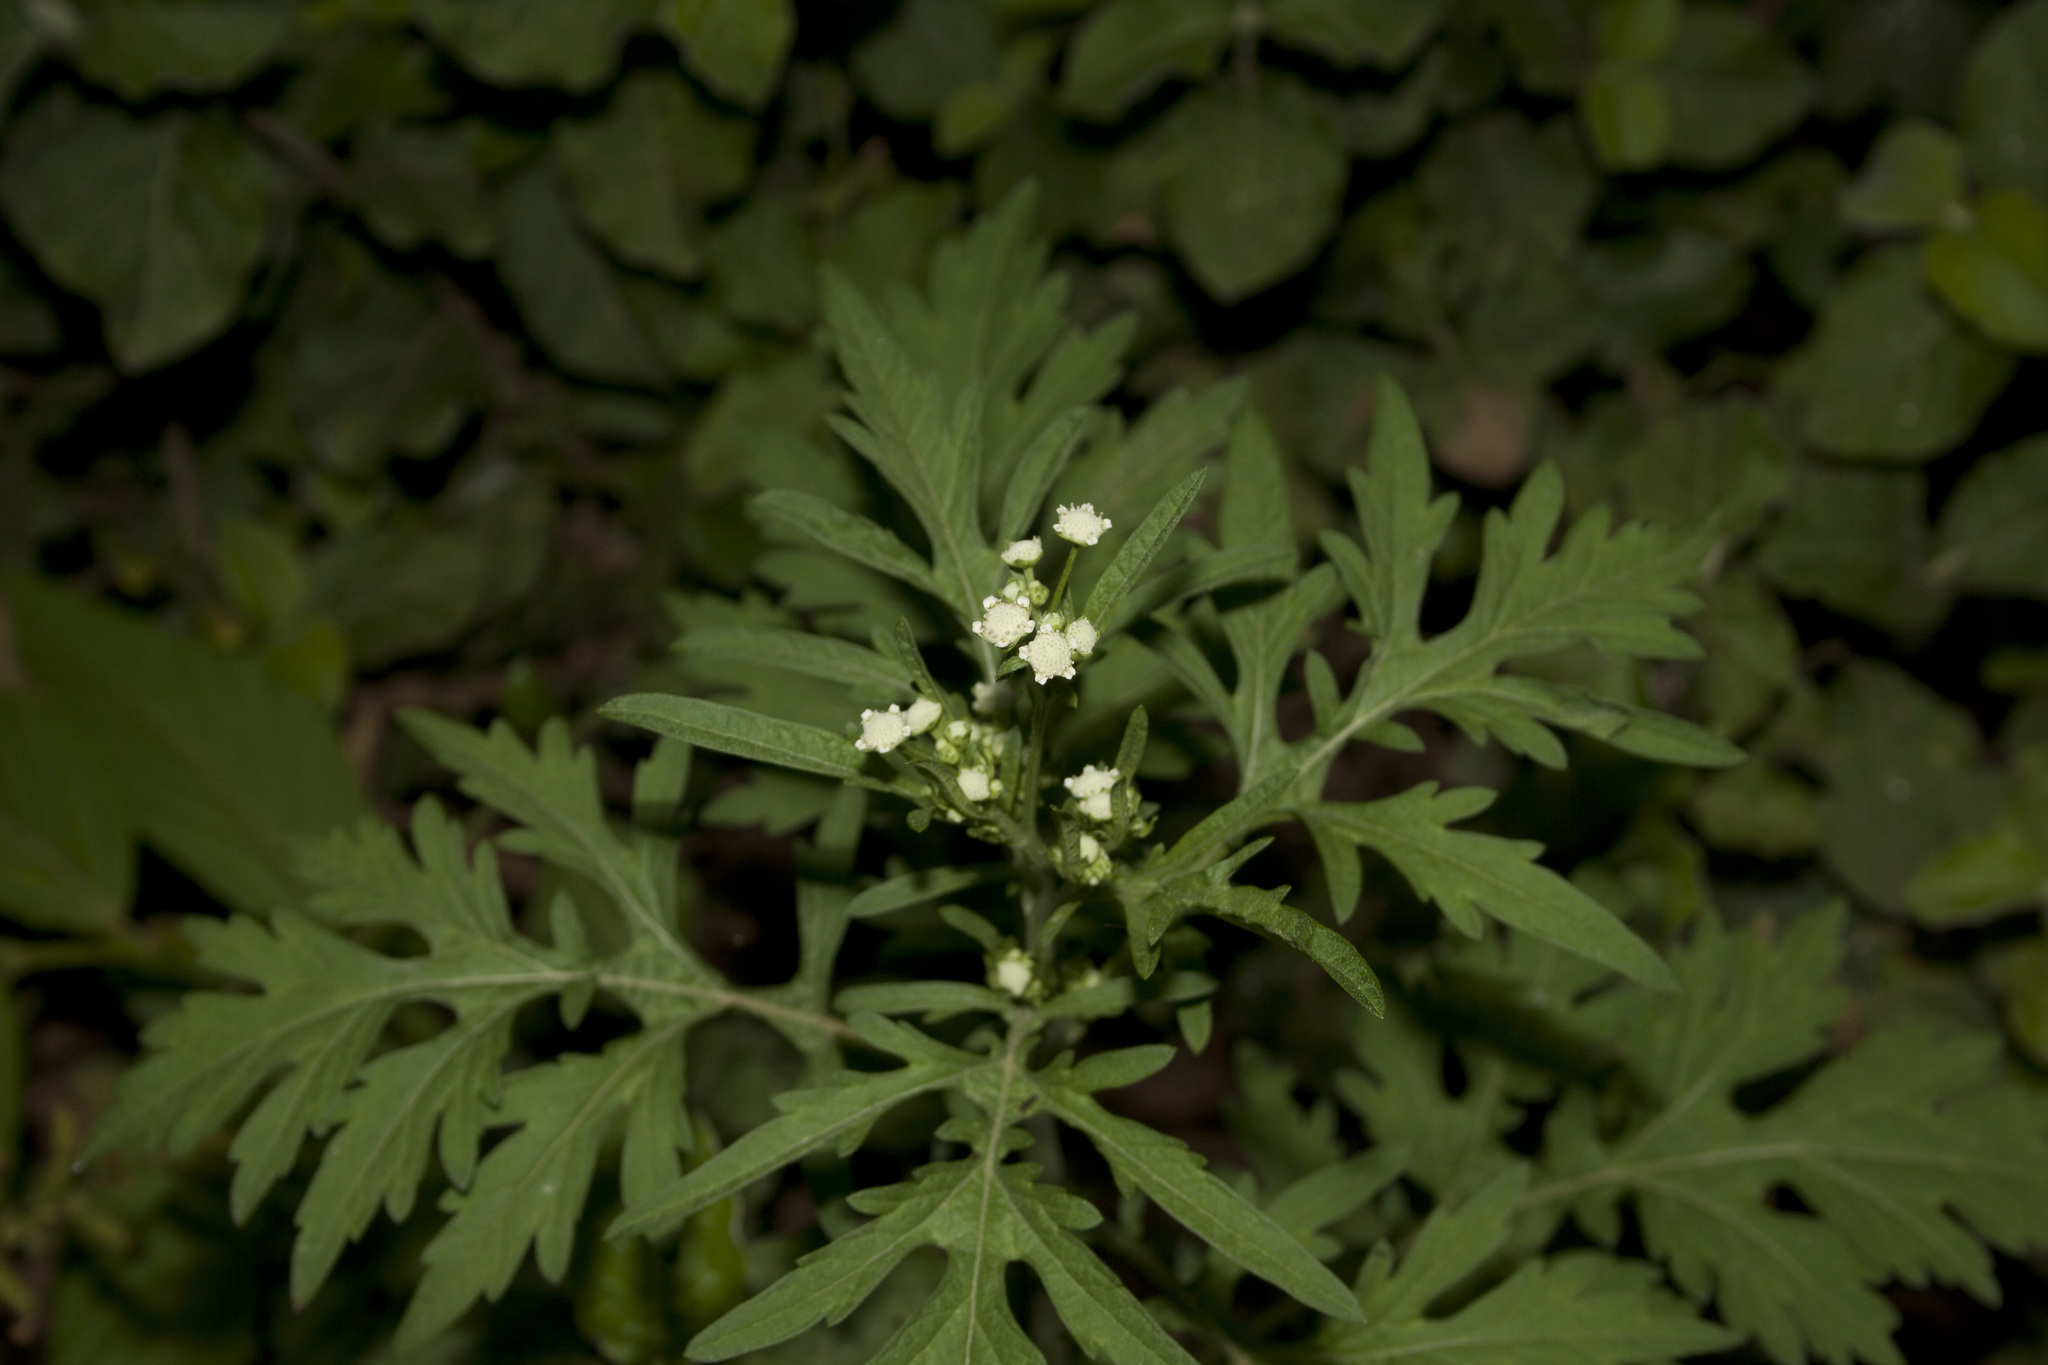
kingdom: Plantae
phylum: Tracheophyta
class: Magnoliopsida
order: Asterales
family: Asteraceae
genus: Parthenium
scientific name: Parthenium hysterophorus
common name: Santa maria feverfew
